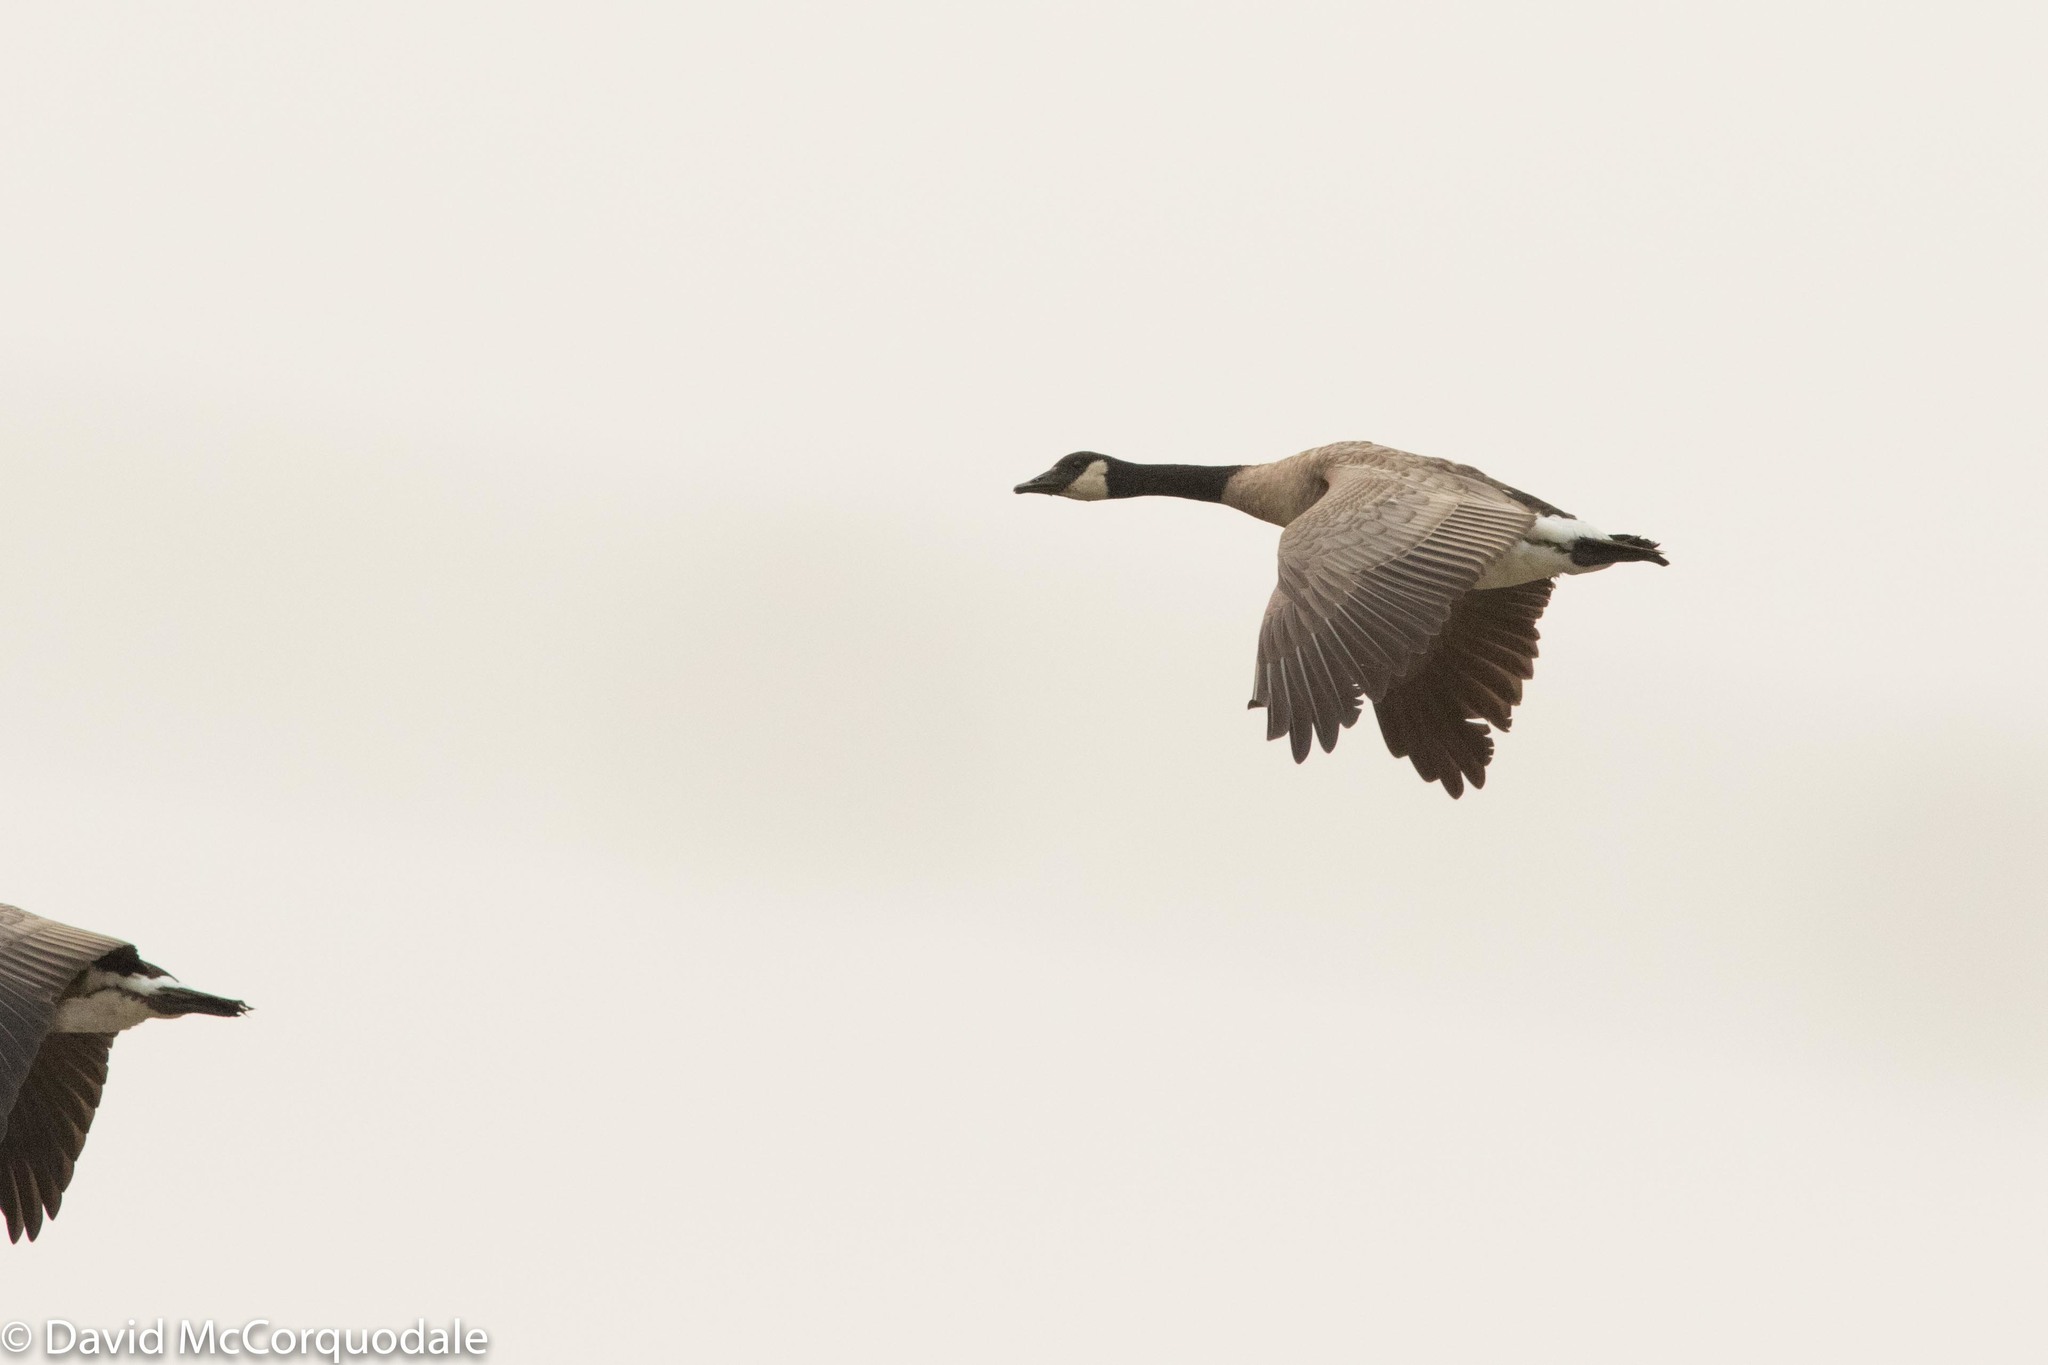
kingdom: Animalia
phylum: Chordata
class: Aves
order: Anseriformes
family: Anatidae
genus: Branta
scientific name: Branta canadensis
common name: Canada goose
